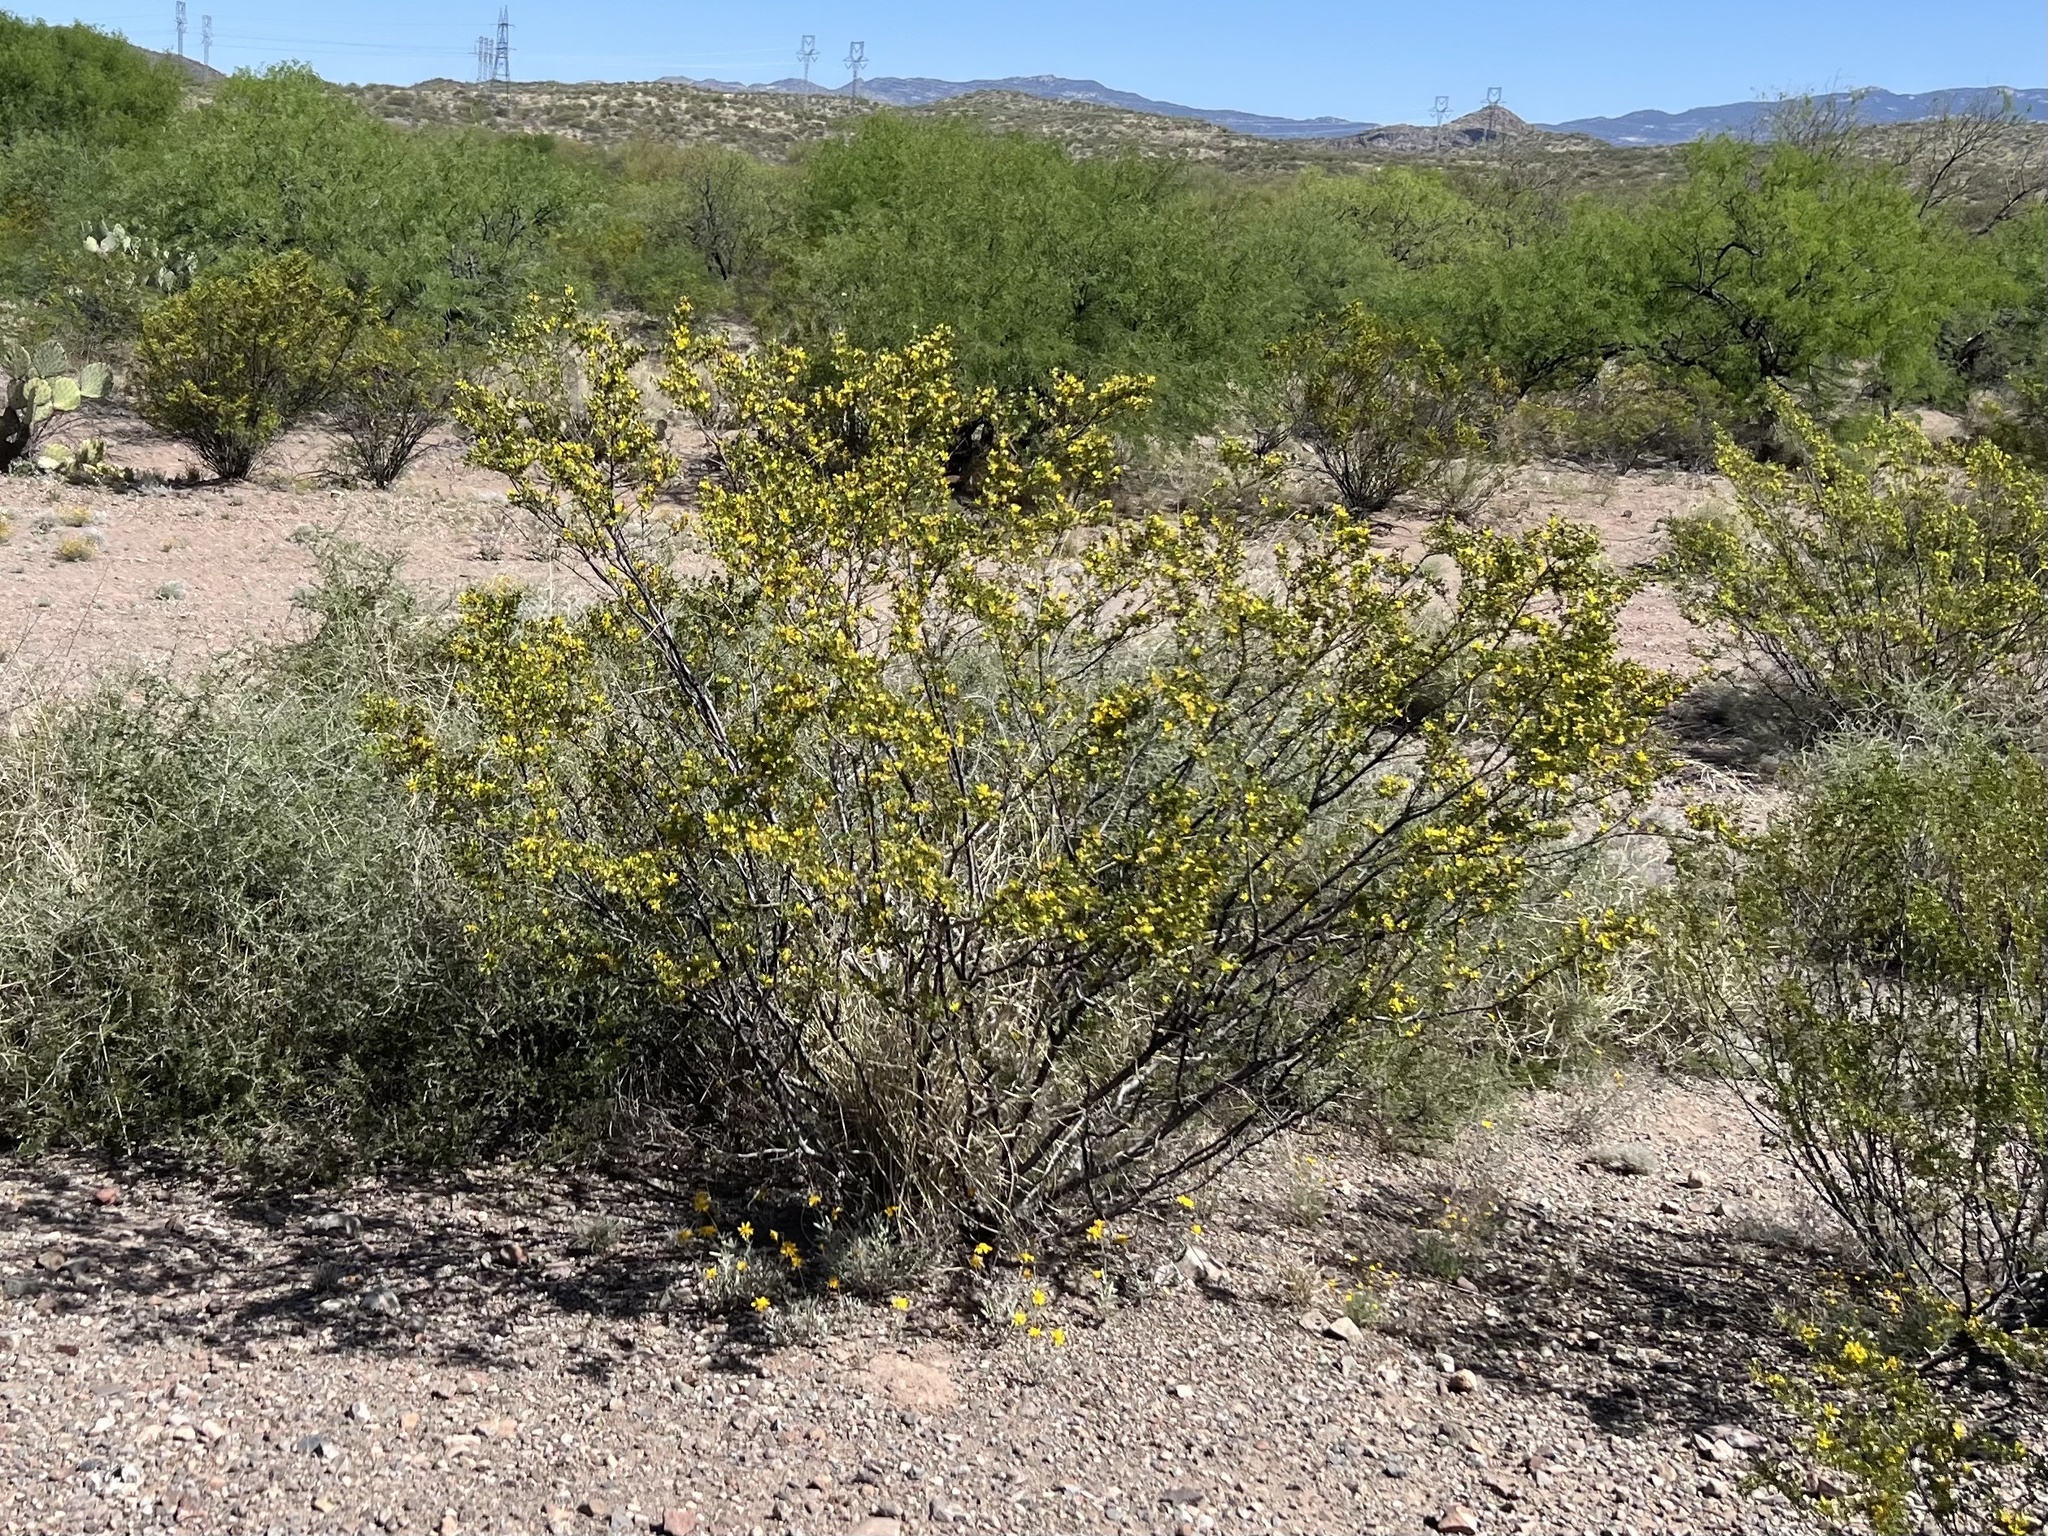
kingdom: Plantae
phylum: Tracheophyta
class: Magnoliopsida
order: Zygophyllales
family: Zygophyllaceae
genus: Larrea
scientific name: Larrea tridentata
